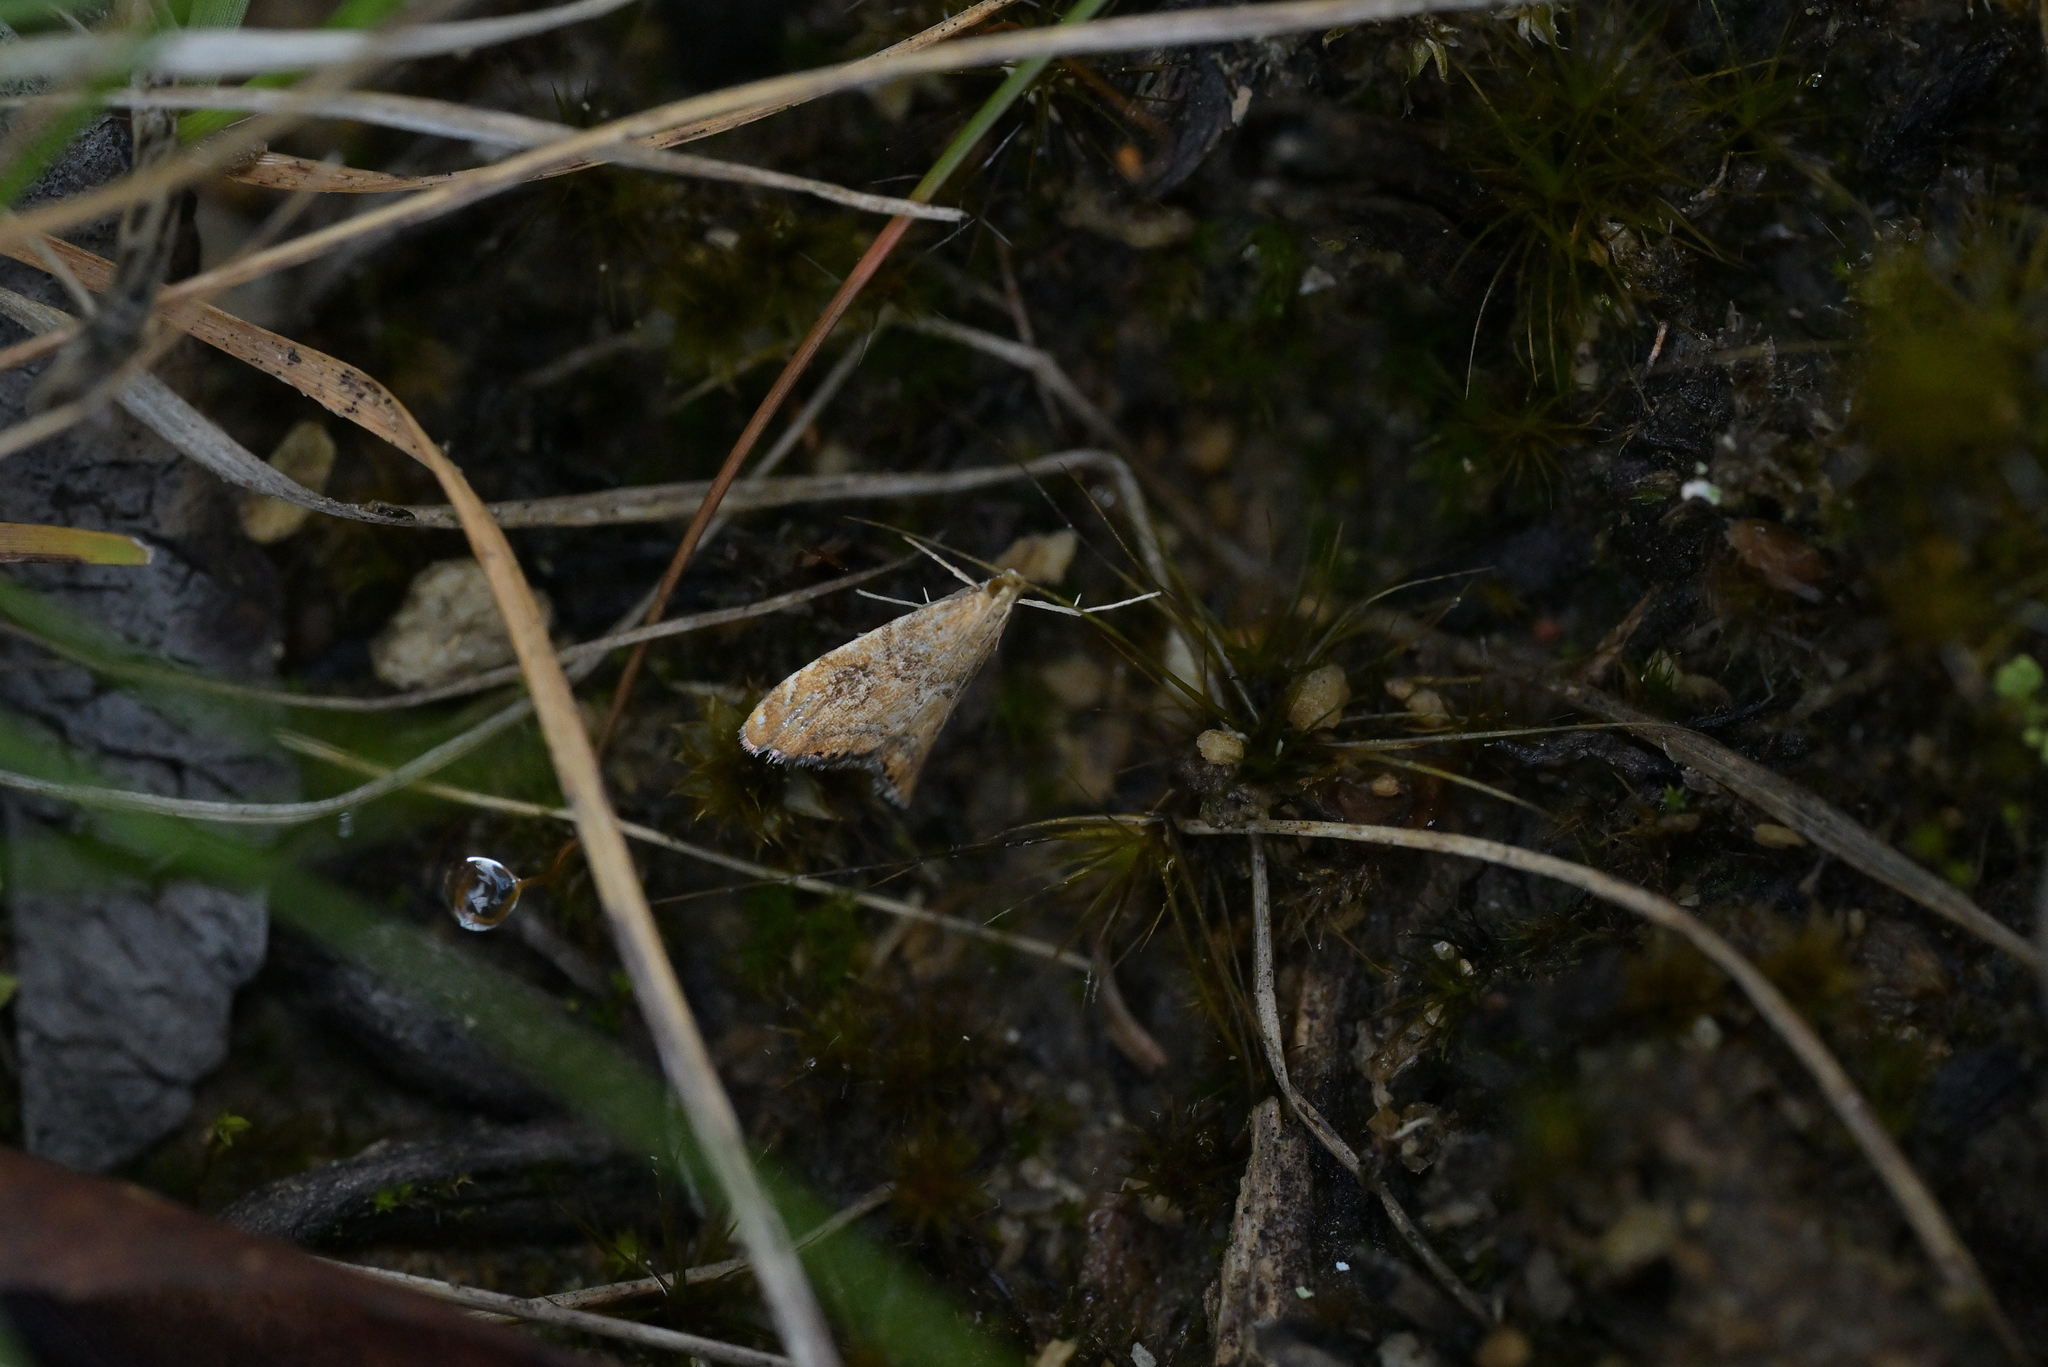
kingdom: Animalia
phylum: Arthropoda
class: Insecta
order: Lepidoptera
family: Crambidae
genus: Glaucocharis
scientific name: Glaucocharis leucoxantha
